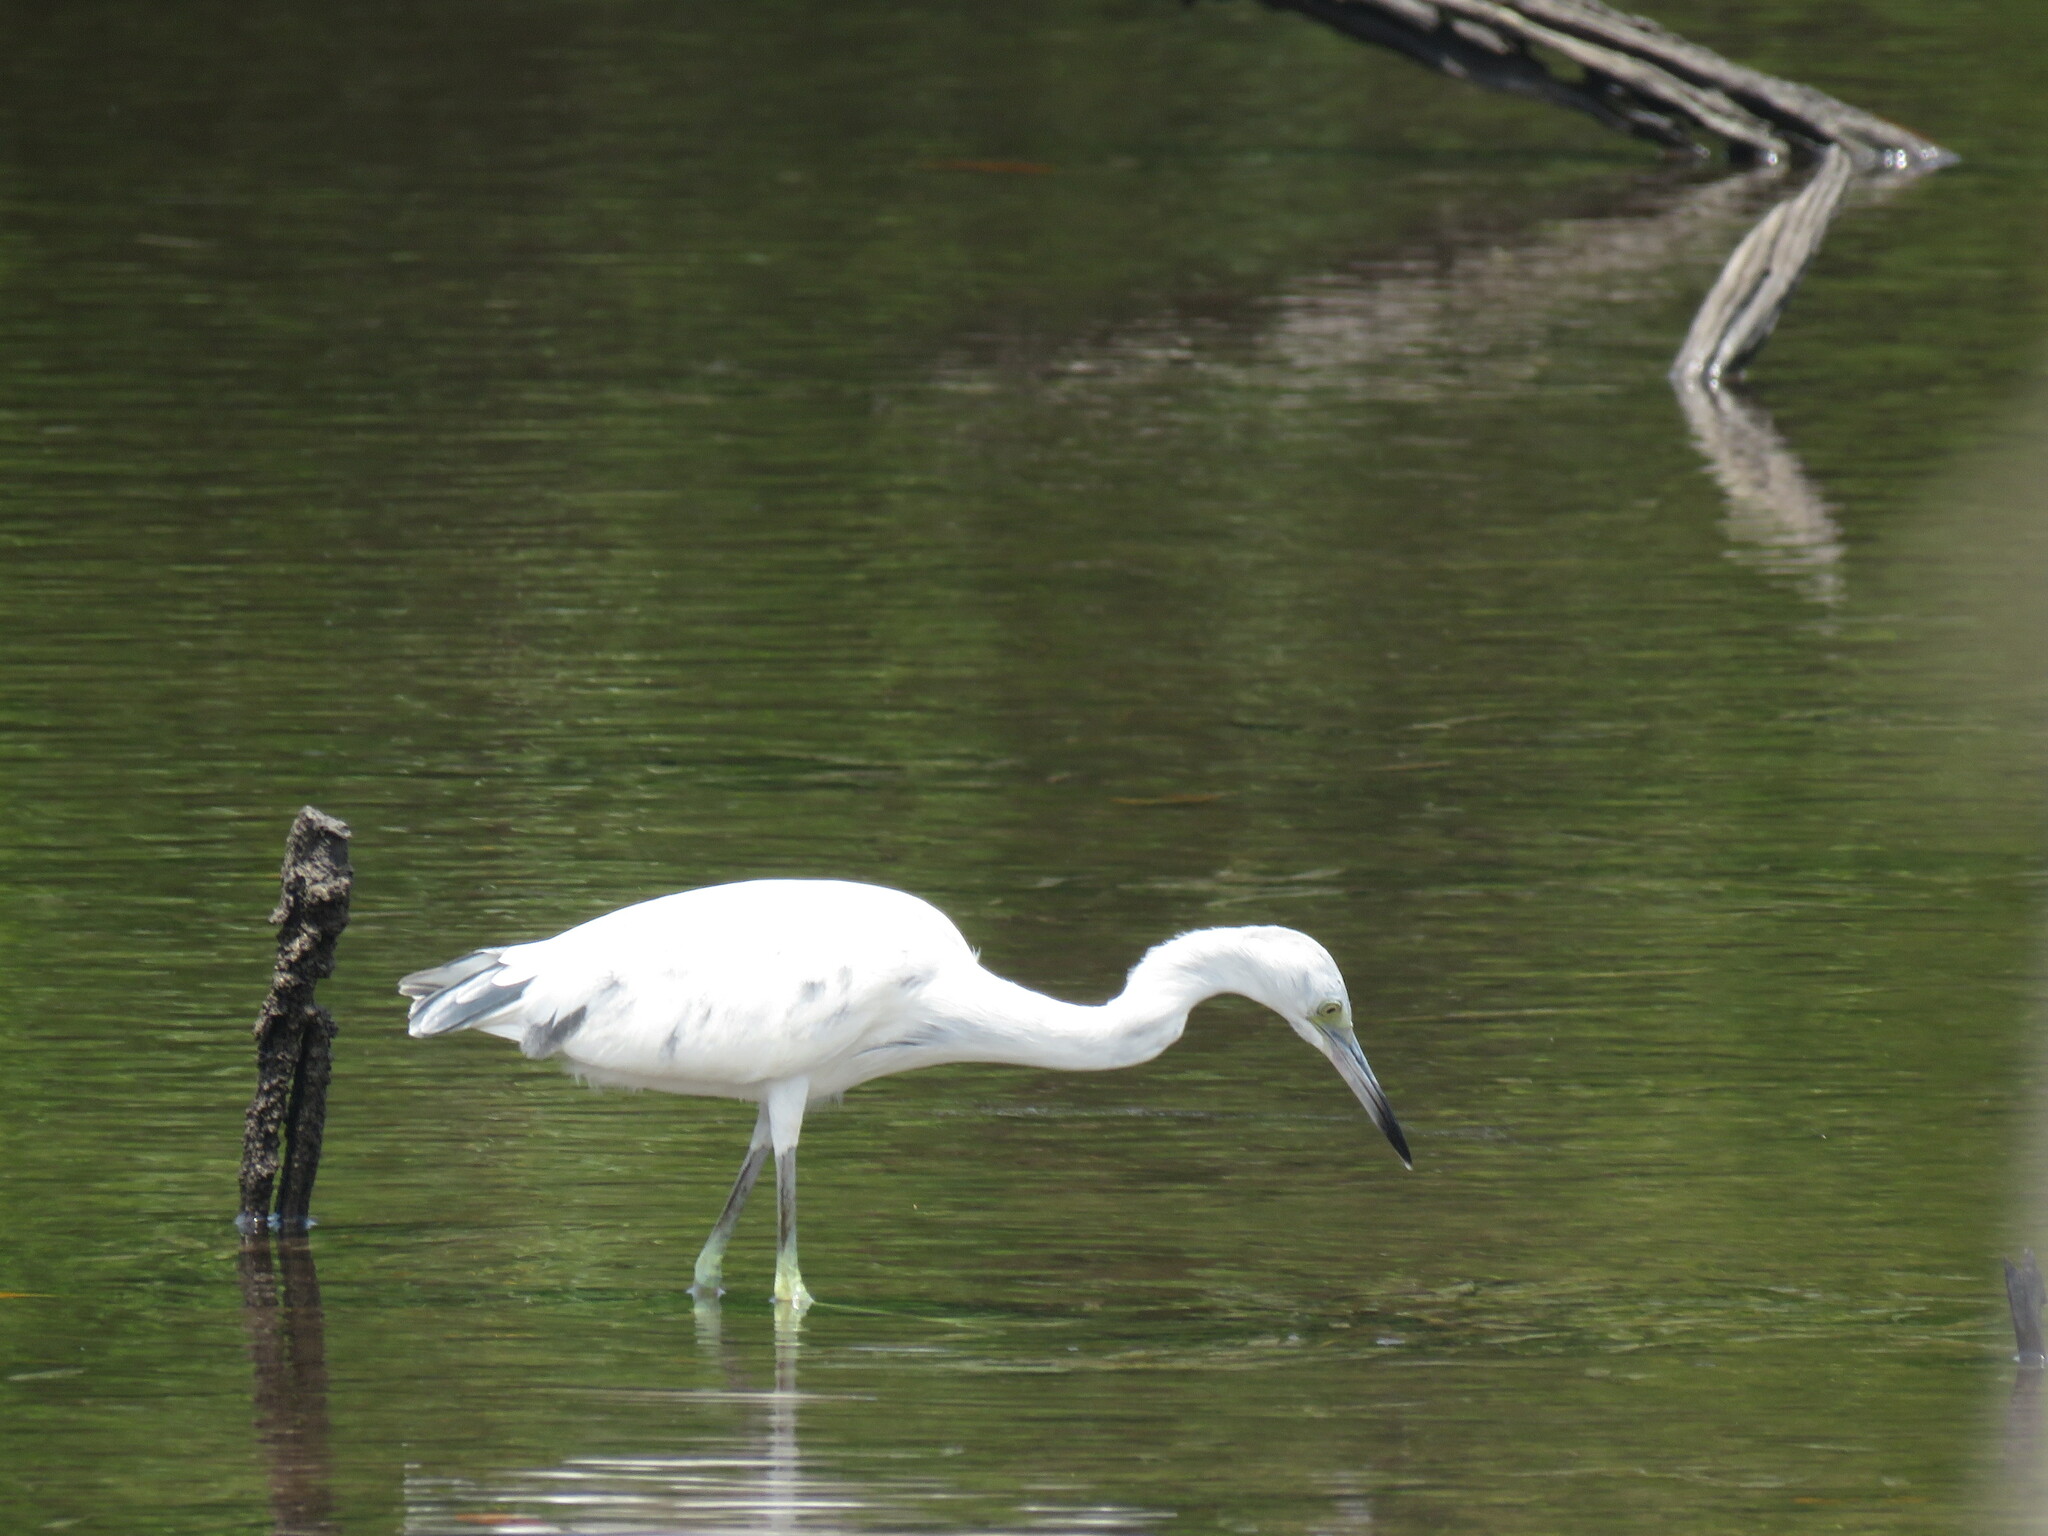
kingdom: Animalia
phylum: Chordata
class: Aves
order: Pelecaniformes
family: Ardeidae
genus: Egretta
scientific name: Egretta caerulea
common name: Little blue heron
